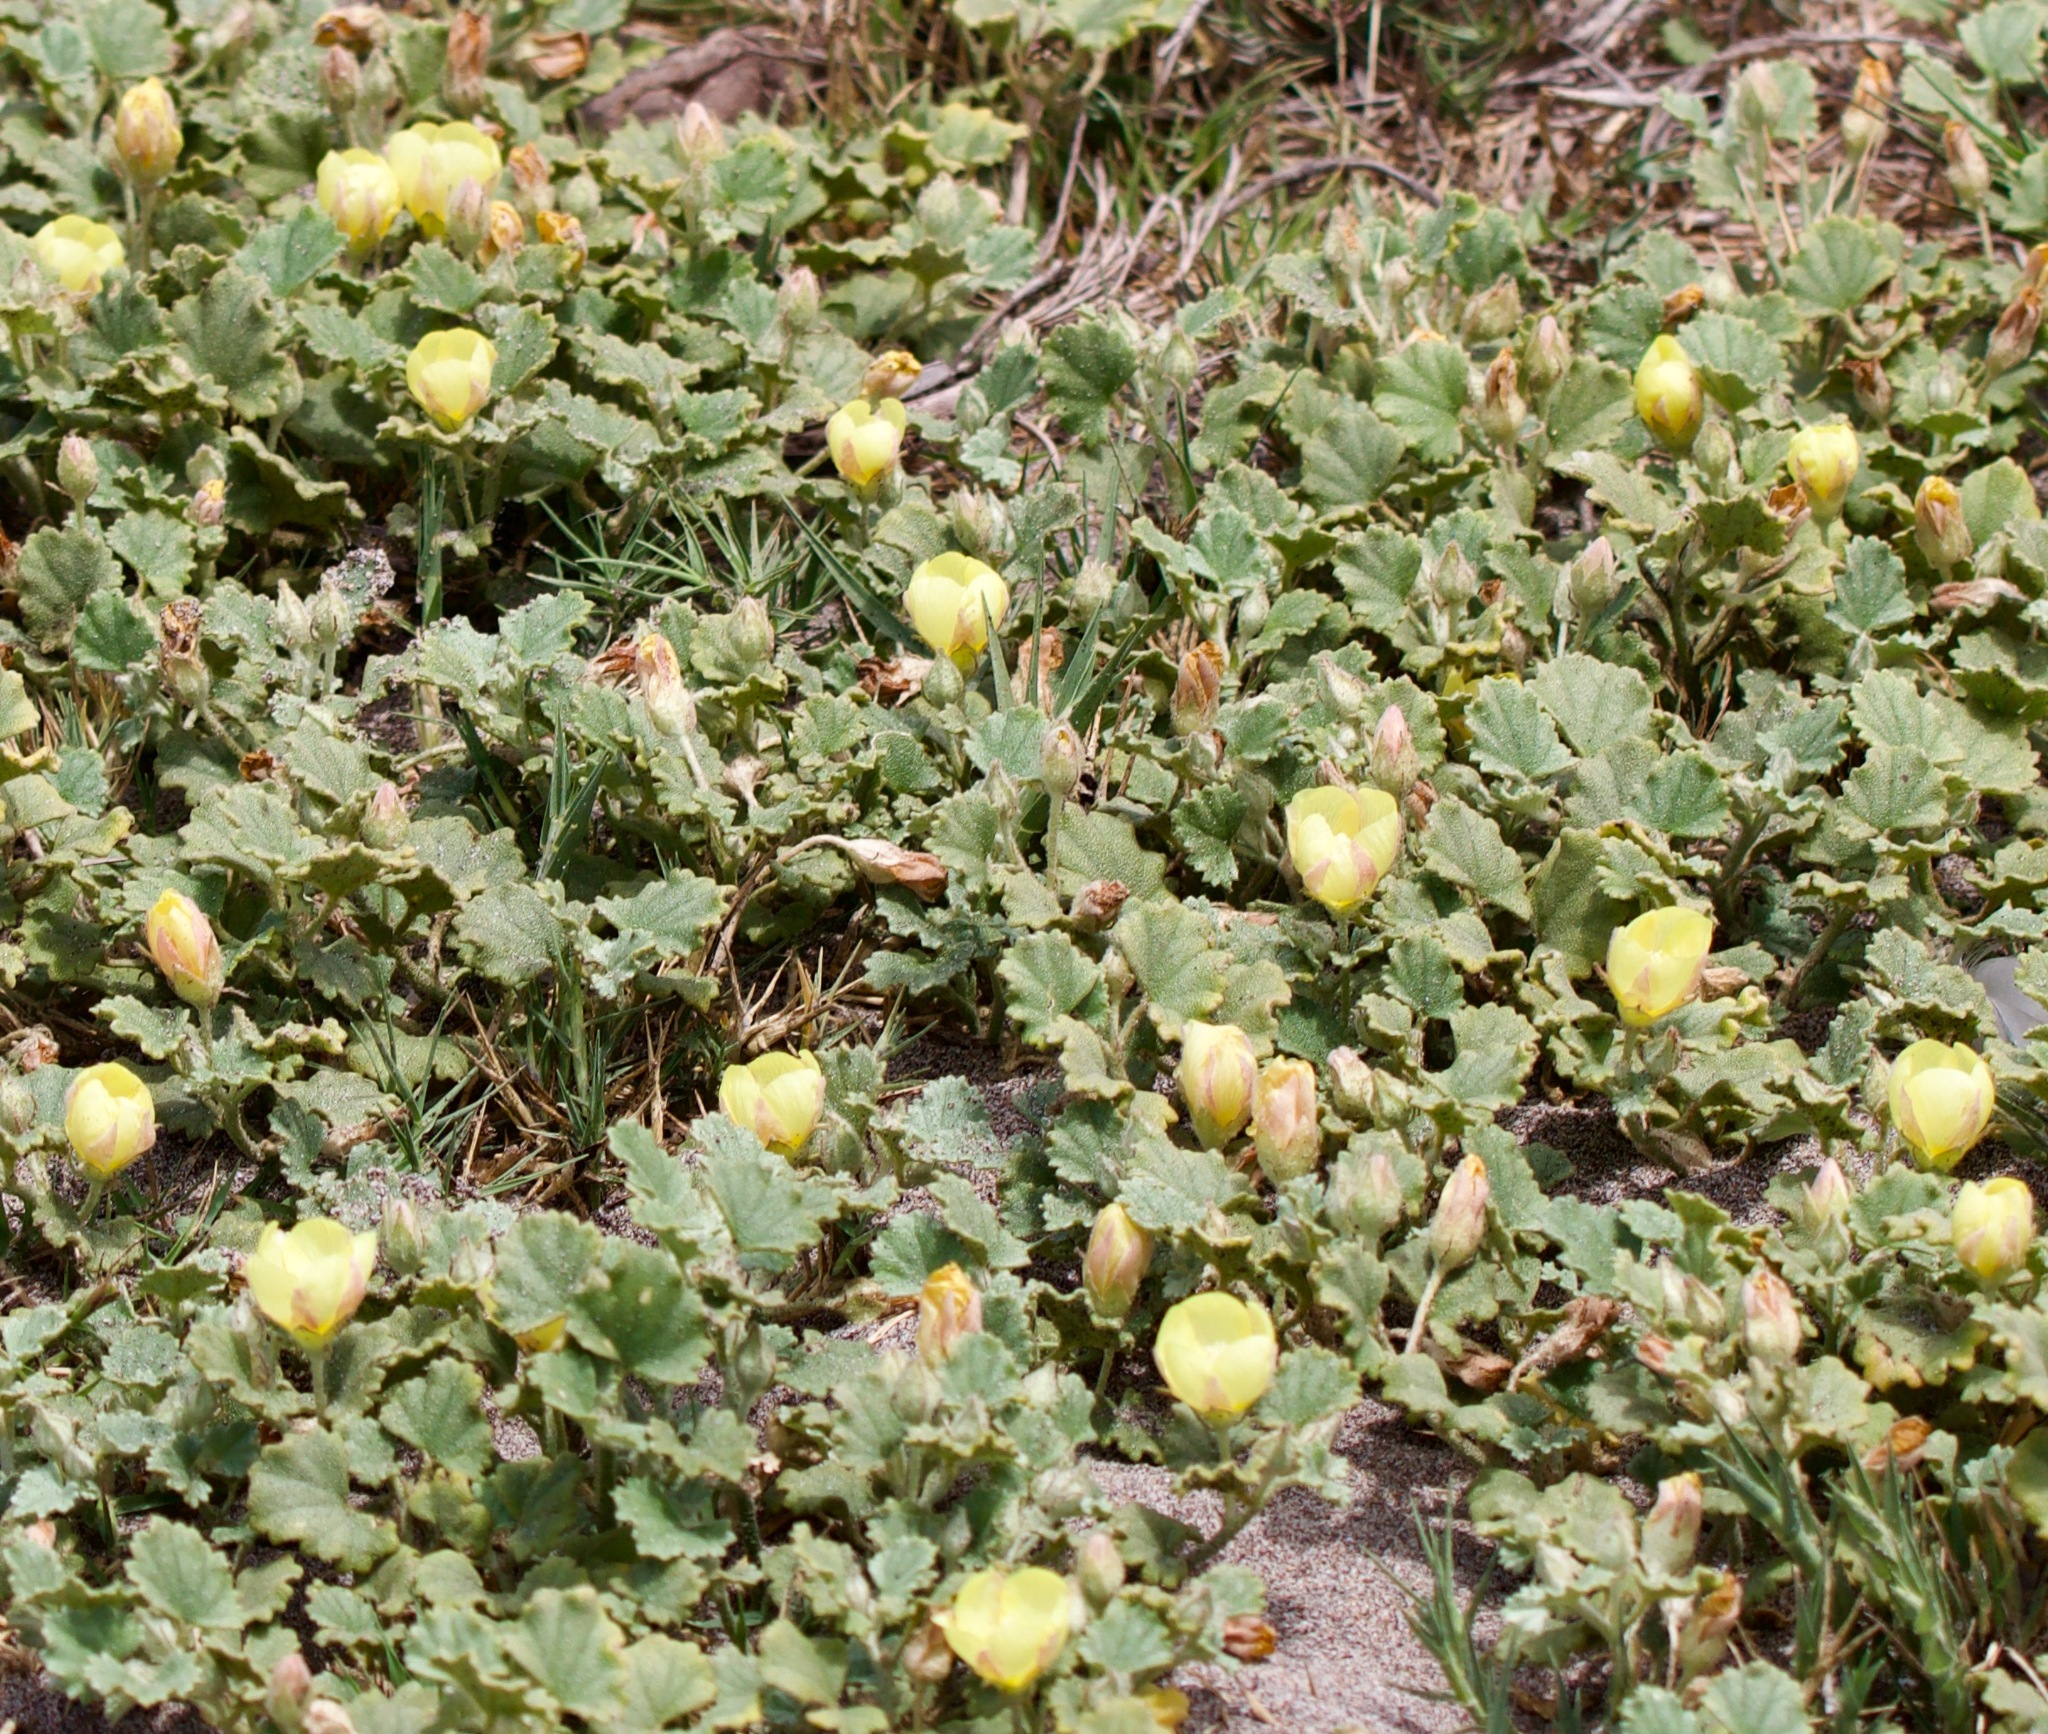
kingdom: Plantae
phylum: Tracheophyta
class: Magnoliopsida
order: Malvales
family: Malvaceae
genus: Malvella
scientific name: Malvella leprosa
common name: Alkali-mallow
